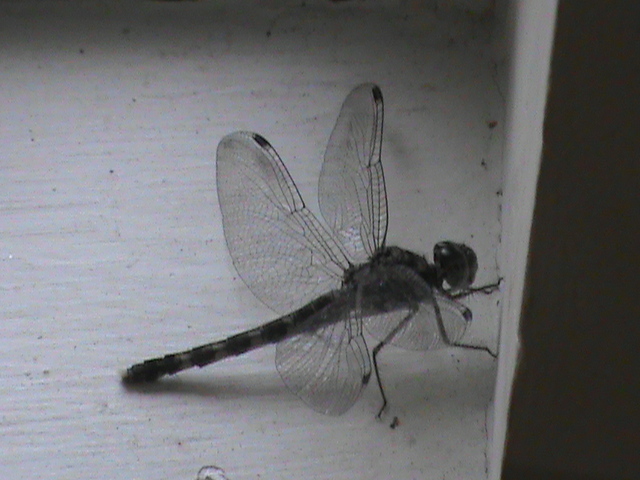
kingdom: Animalia
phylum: Arthropoda
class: Insecta
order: Odonata
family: Libellulidae
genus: Bradinopyga
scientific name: Bradinopyga geminata
